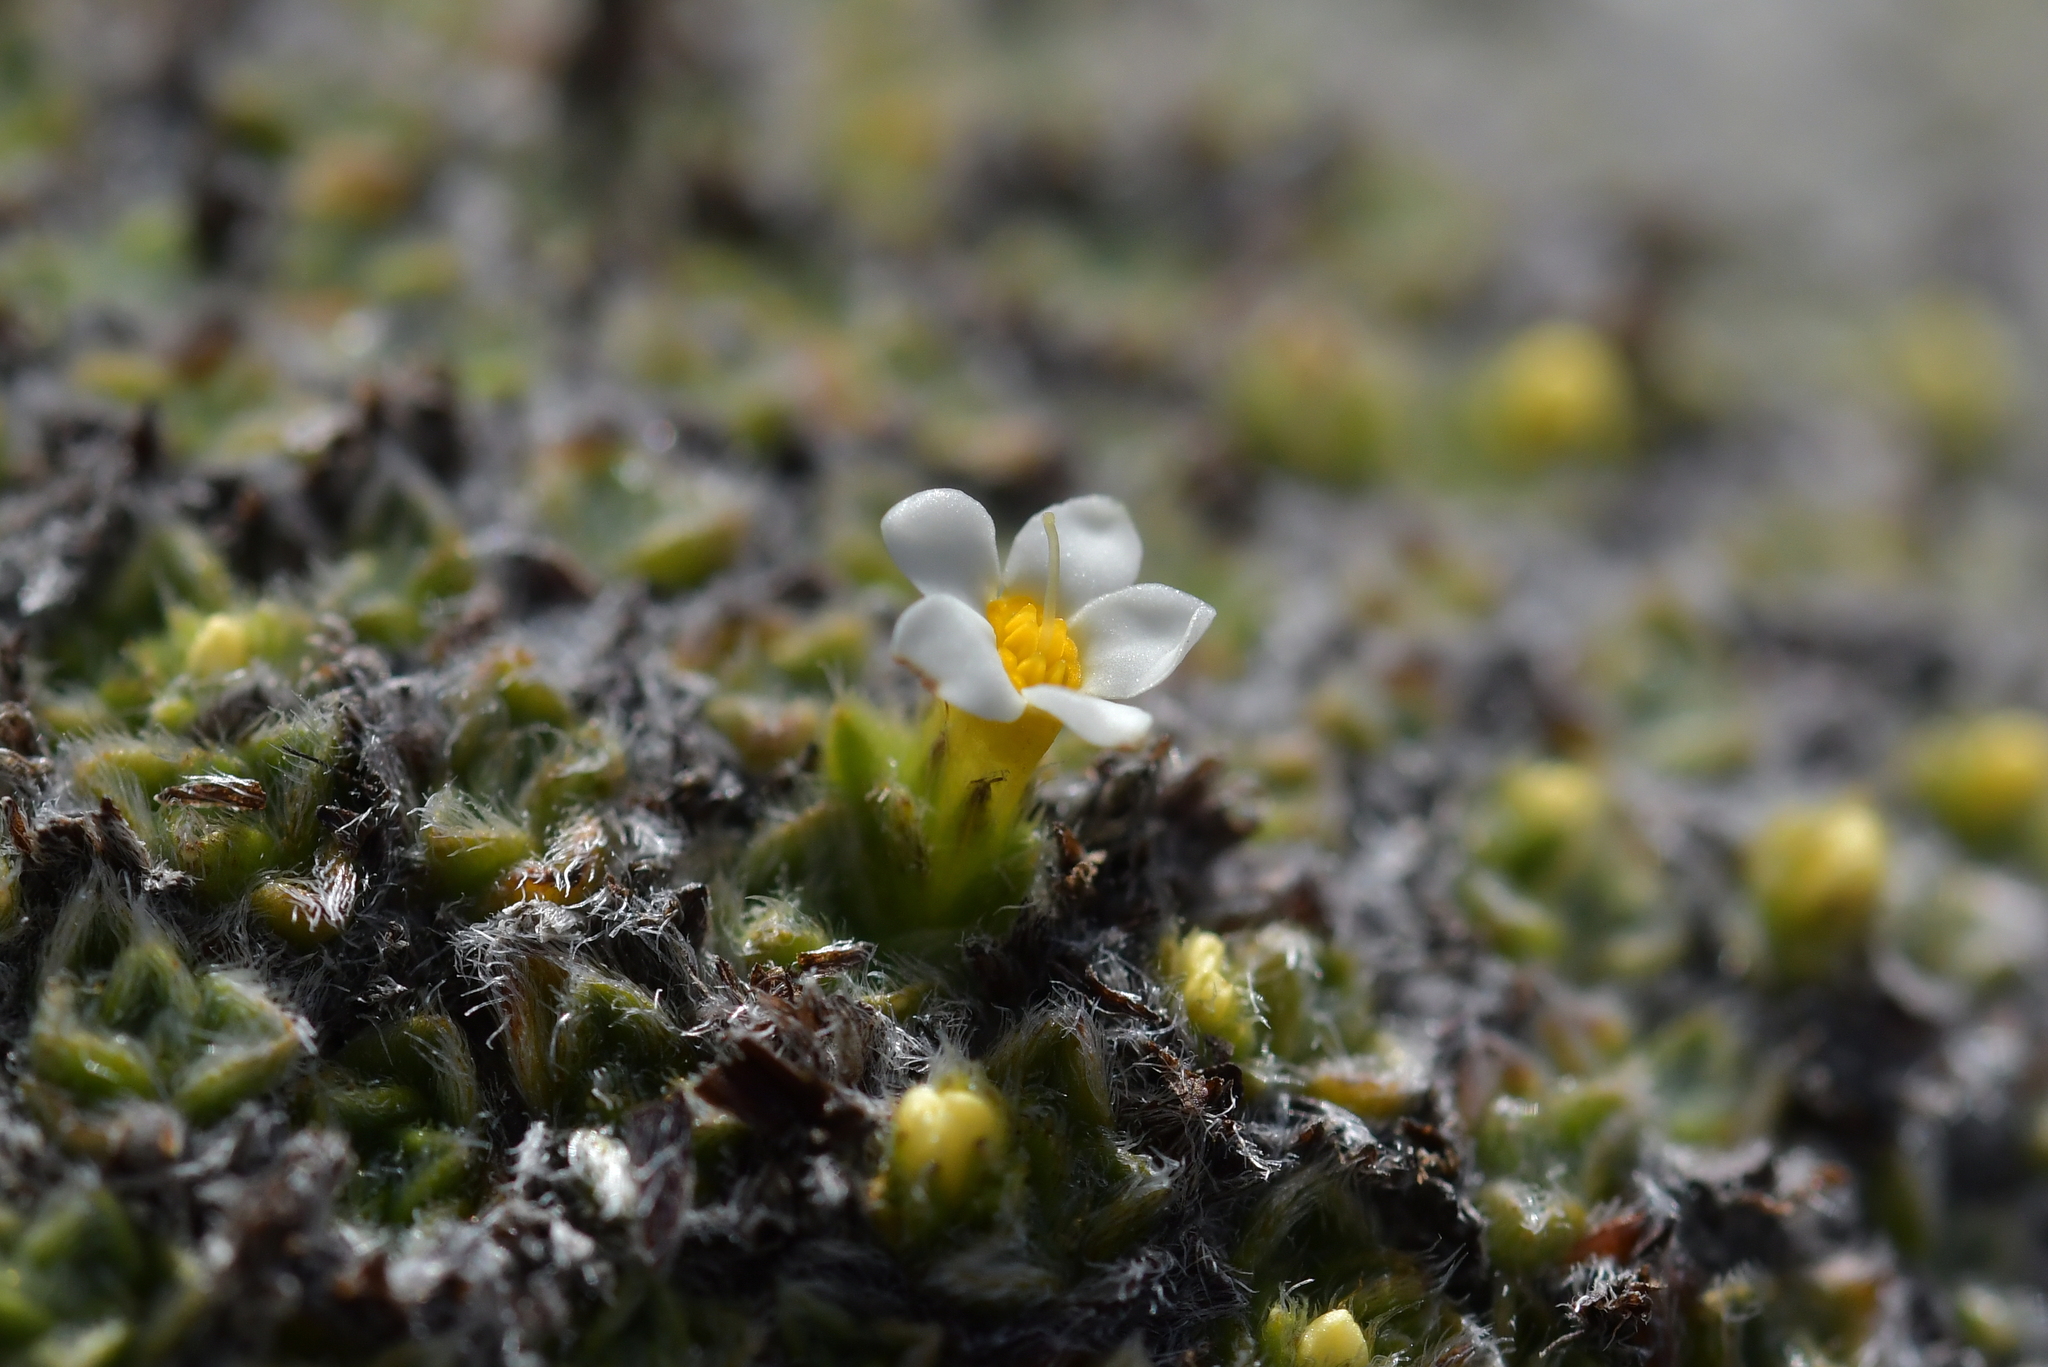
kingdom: Plantae
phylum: Tracheophyta
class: Magnoliopsida
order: Boraginales
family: Boraginaceae
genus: Myosotis
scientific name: Myosotis pulvinaris
